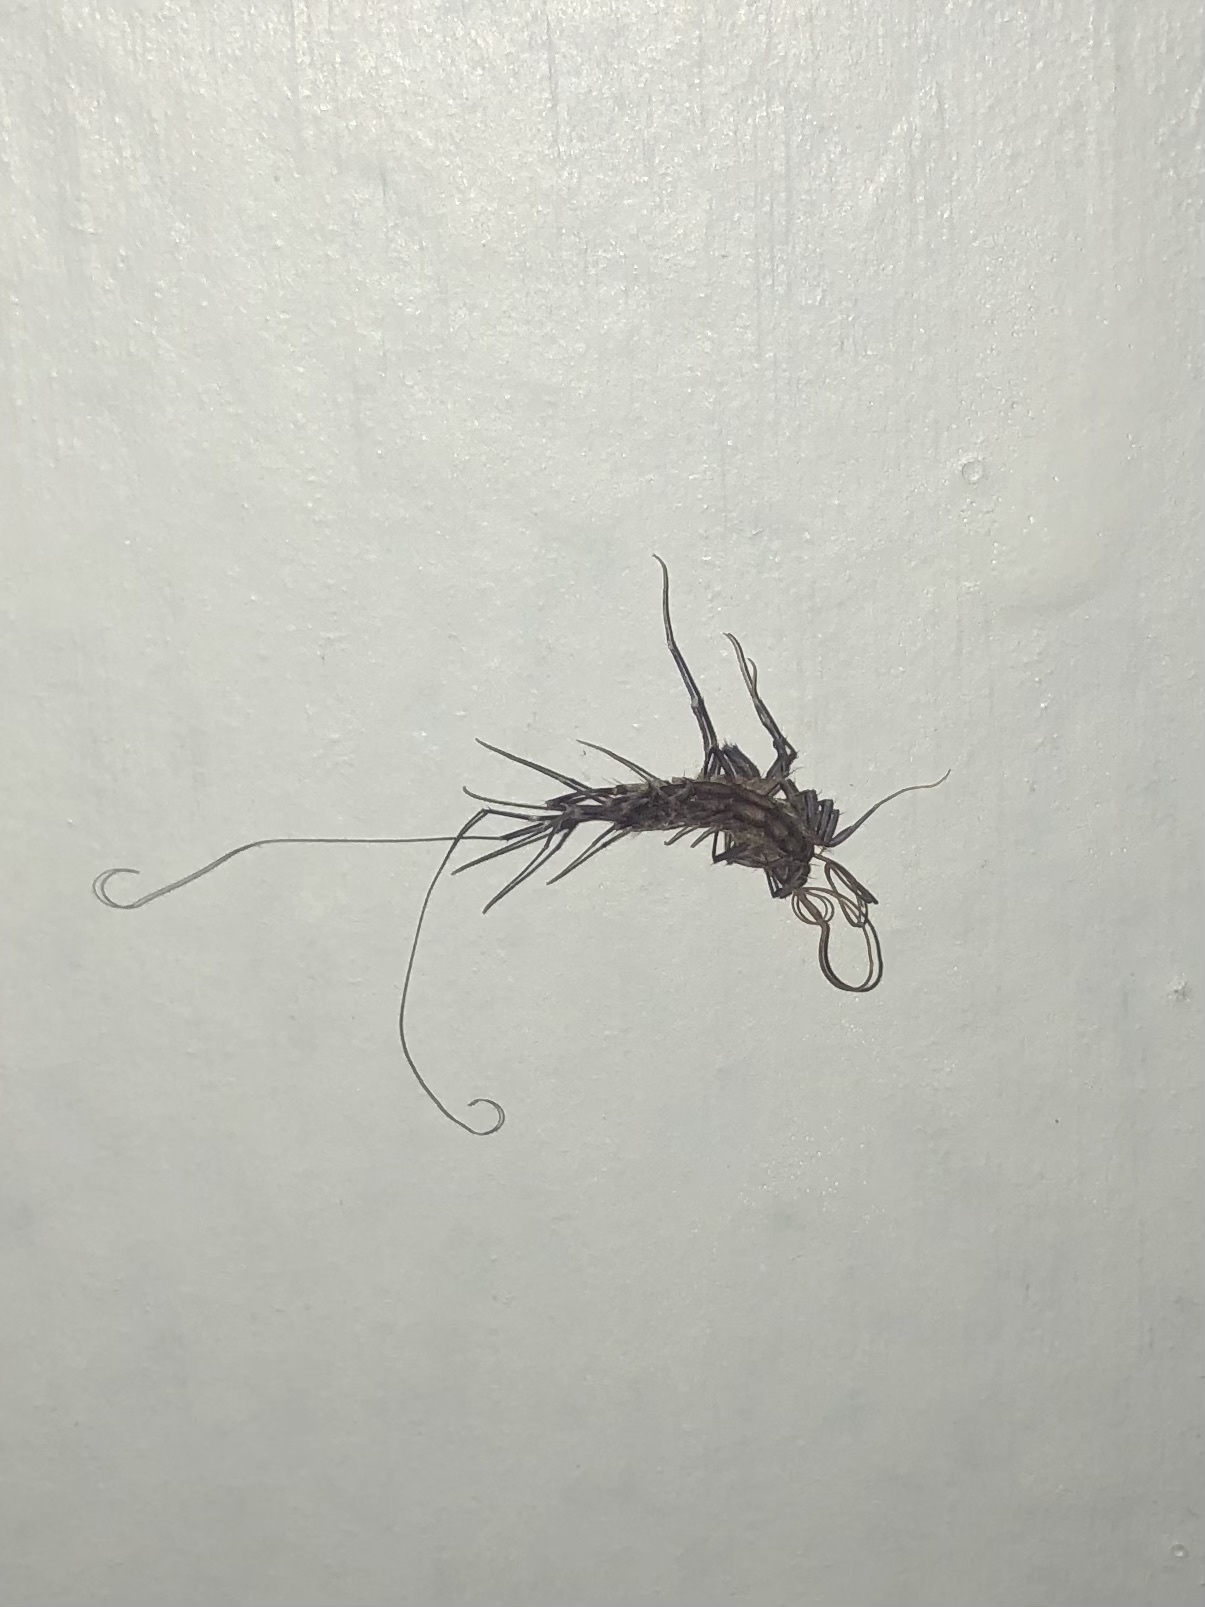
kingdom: Animalia
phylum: Arthropoda
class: Chilopoda
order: Scutigeromorpha
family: Scutigeridae
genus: Scutigera
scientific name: Scutigera coleoptrata
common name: House centipede
